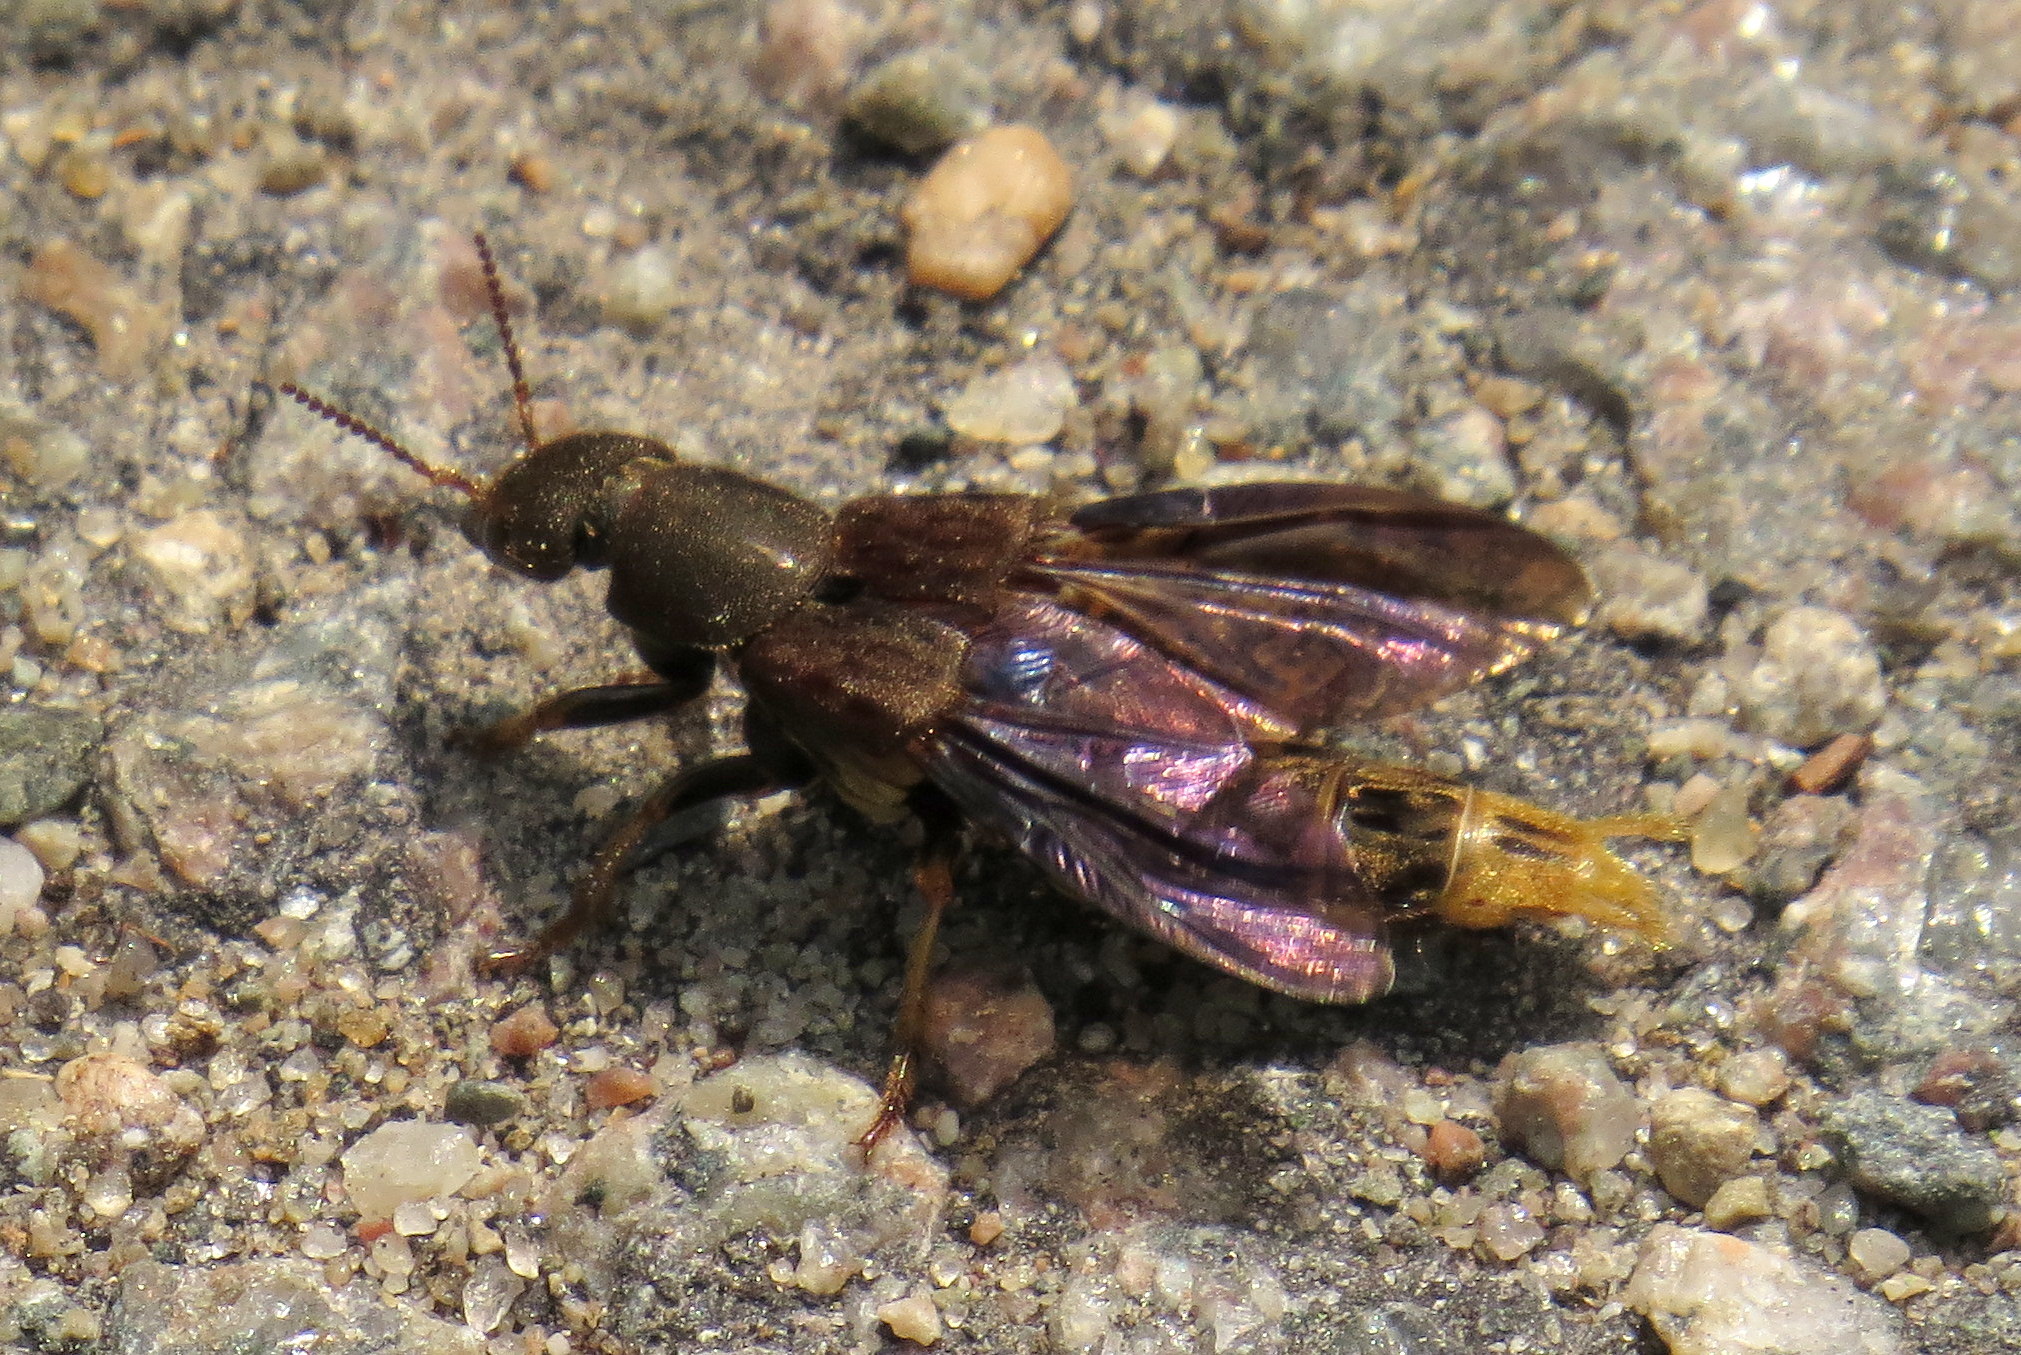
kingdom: Animalia
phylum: Arthropoda
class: Insecta
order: Coleoptera
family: Staphylinidae
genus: Platydracus
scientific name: Platydracus maculosus
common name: Brown rove beetle
